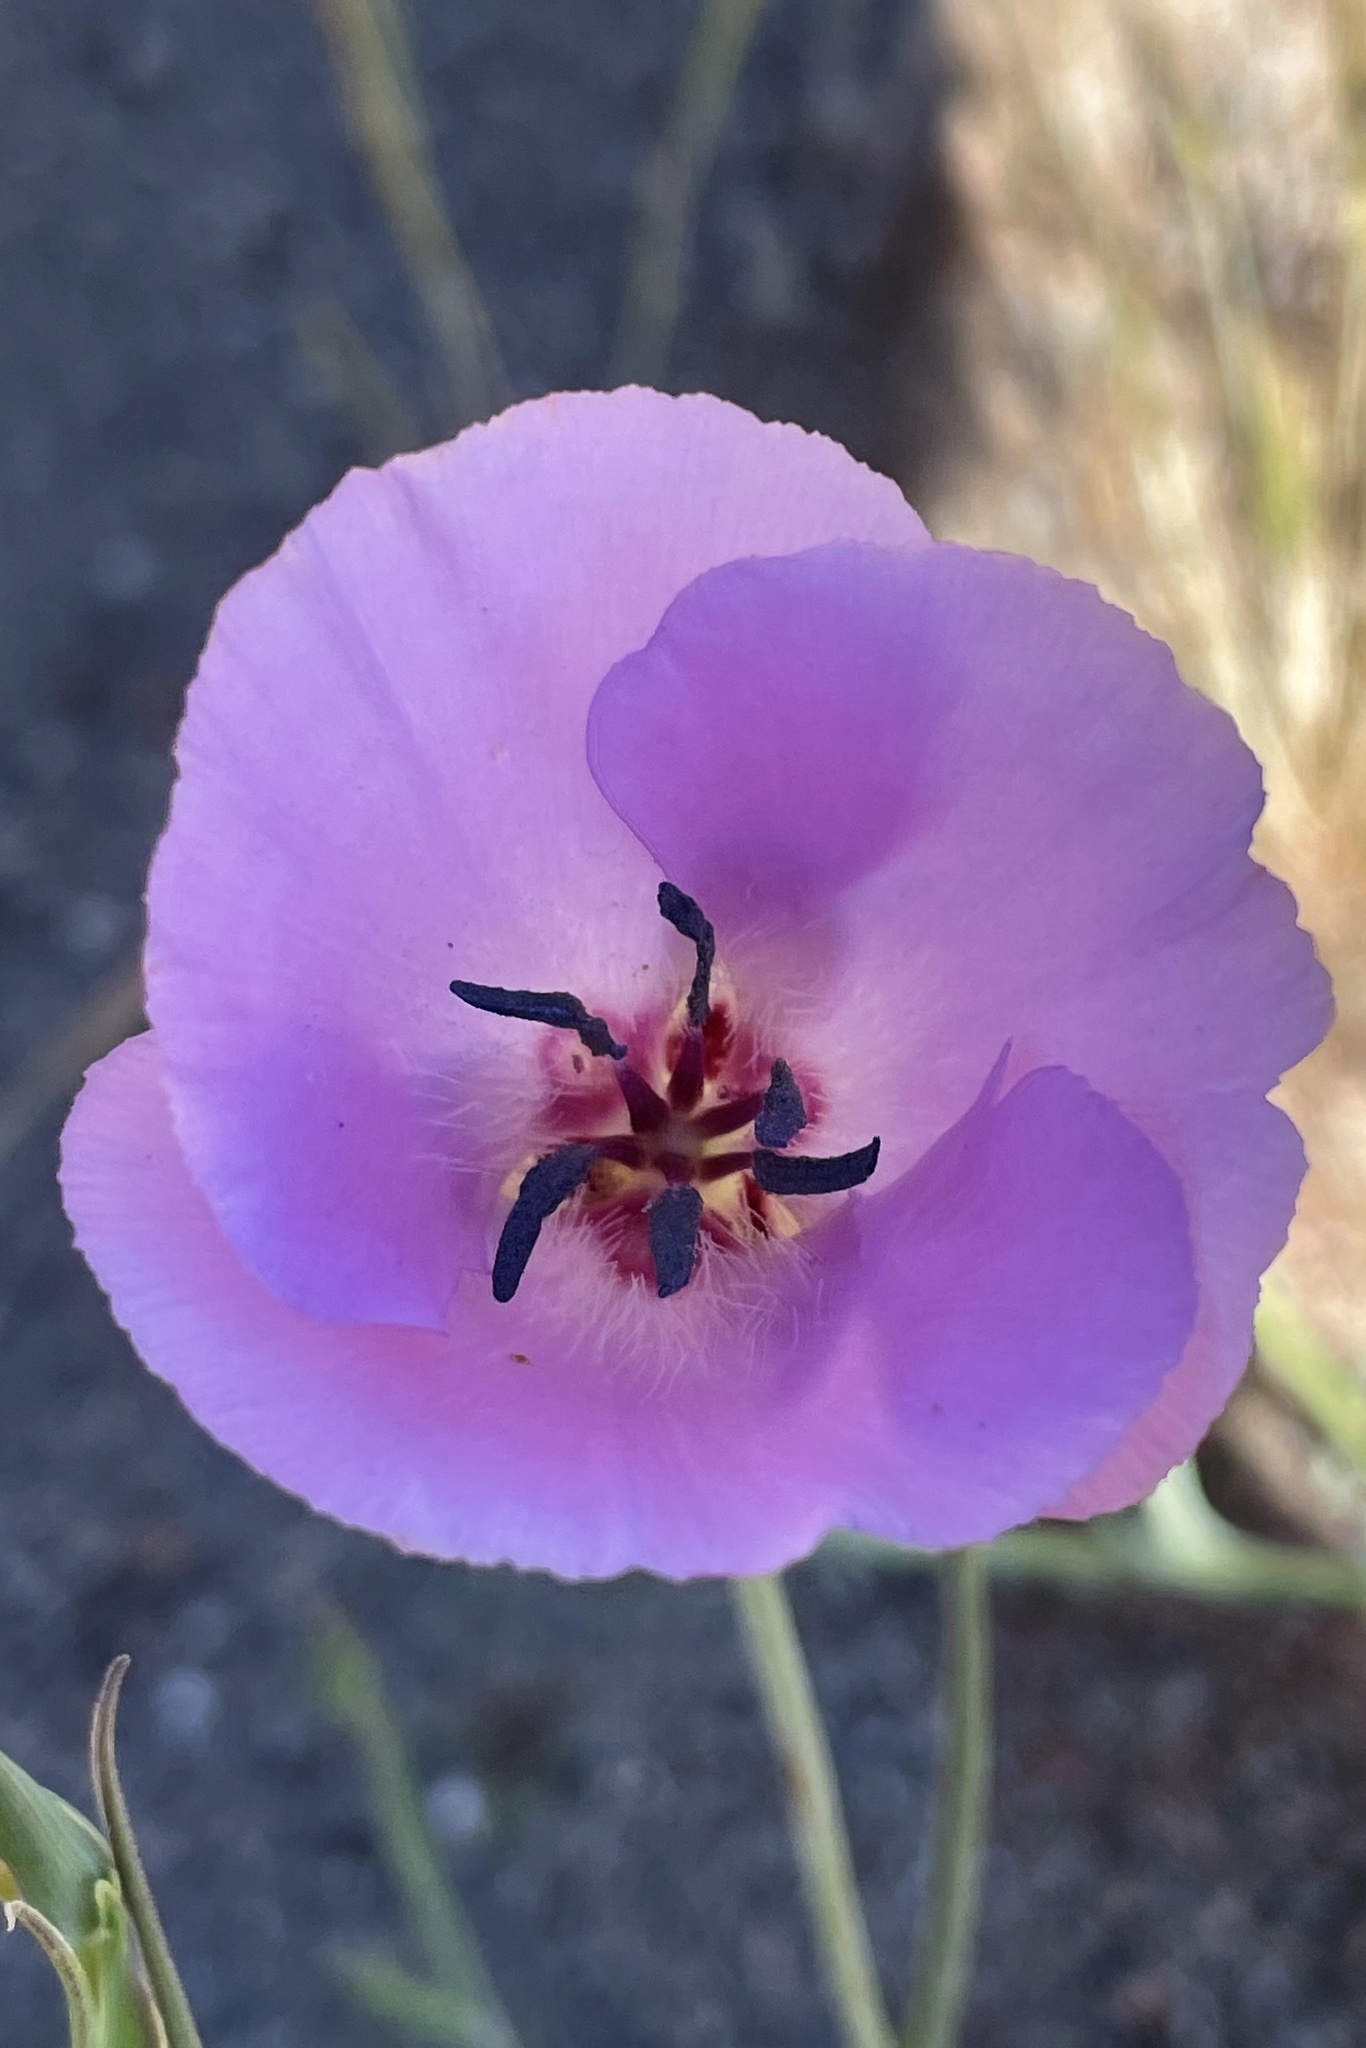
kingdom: Plantae
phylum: Tracheophyta
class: Liliopsida
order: Liliales
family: Liliaceae
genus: Calochortus
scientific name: Calochortus splendens
